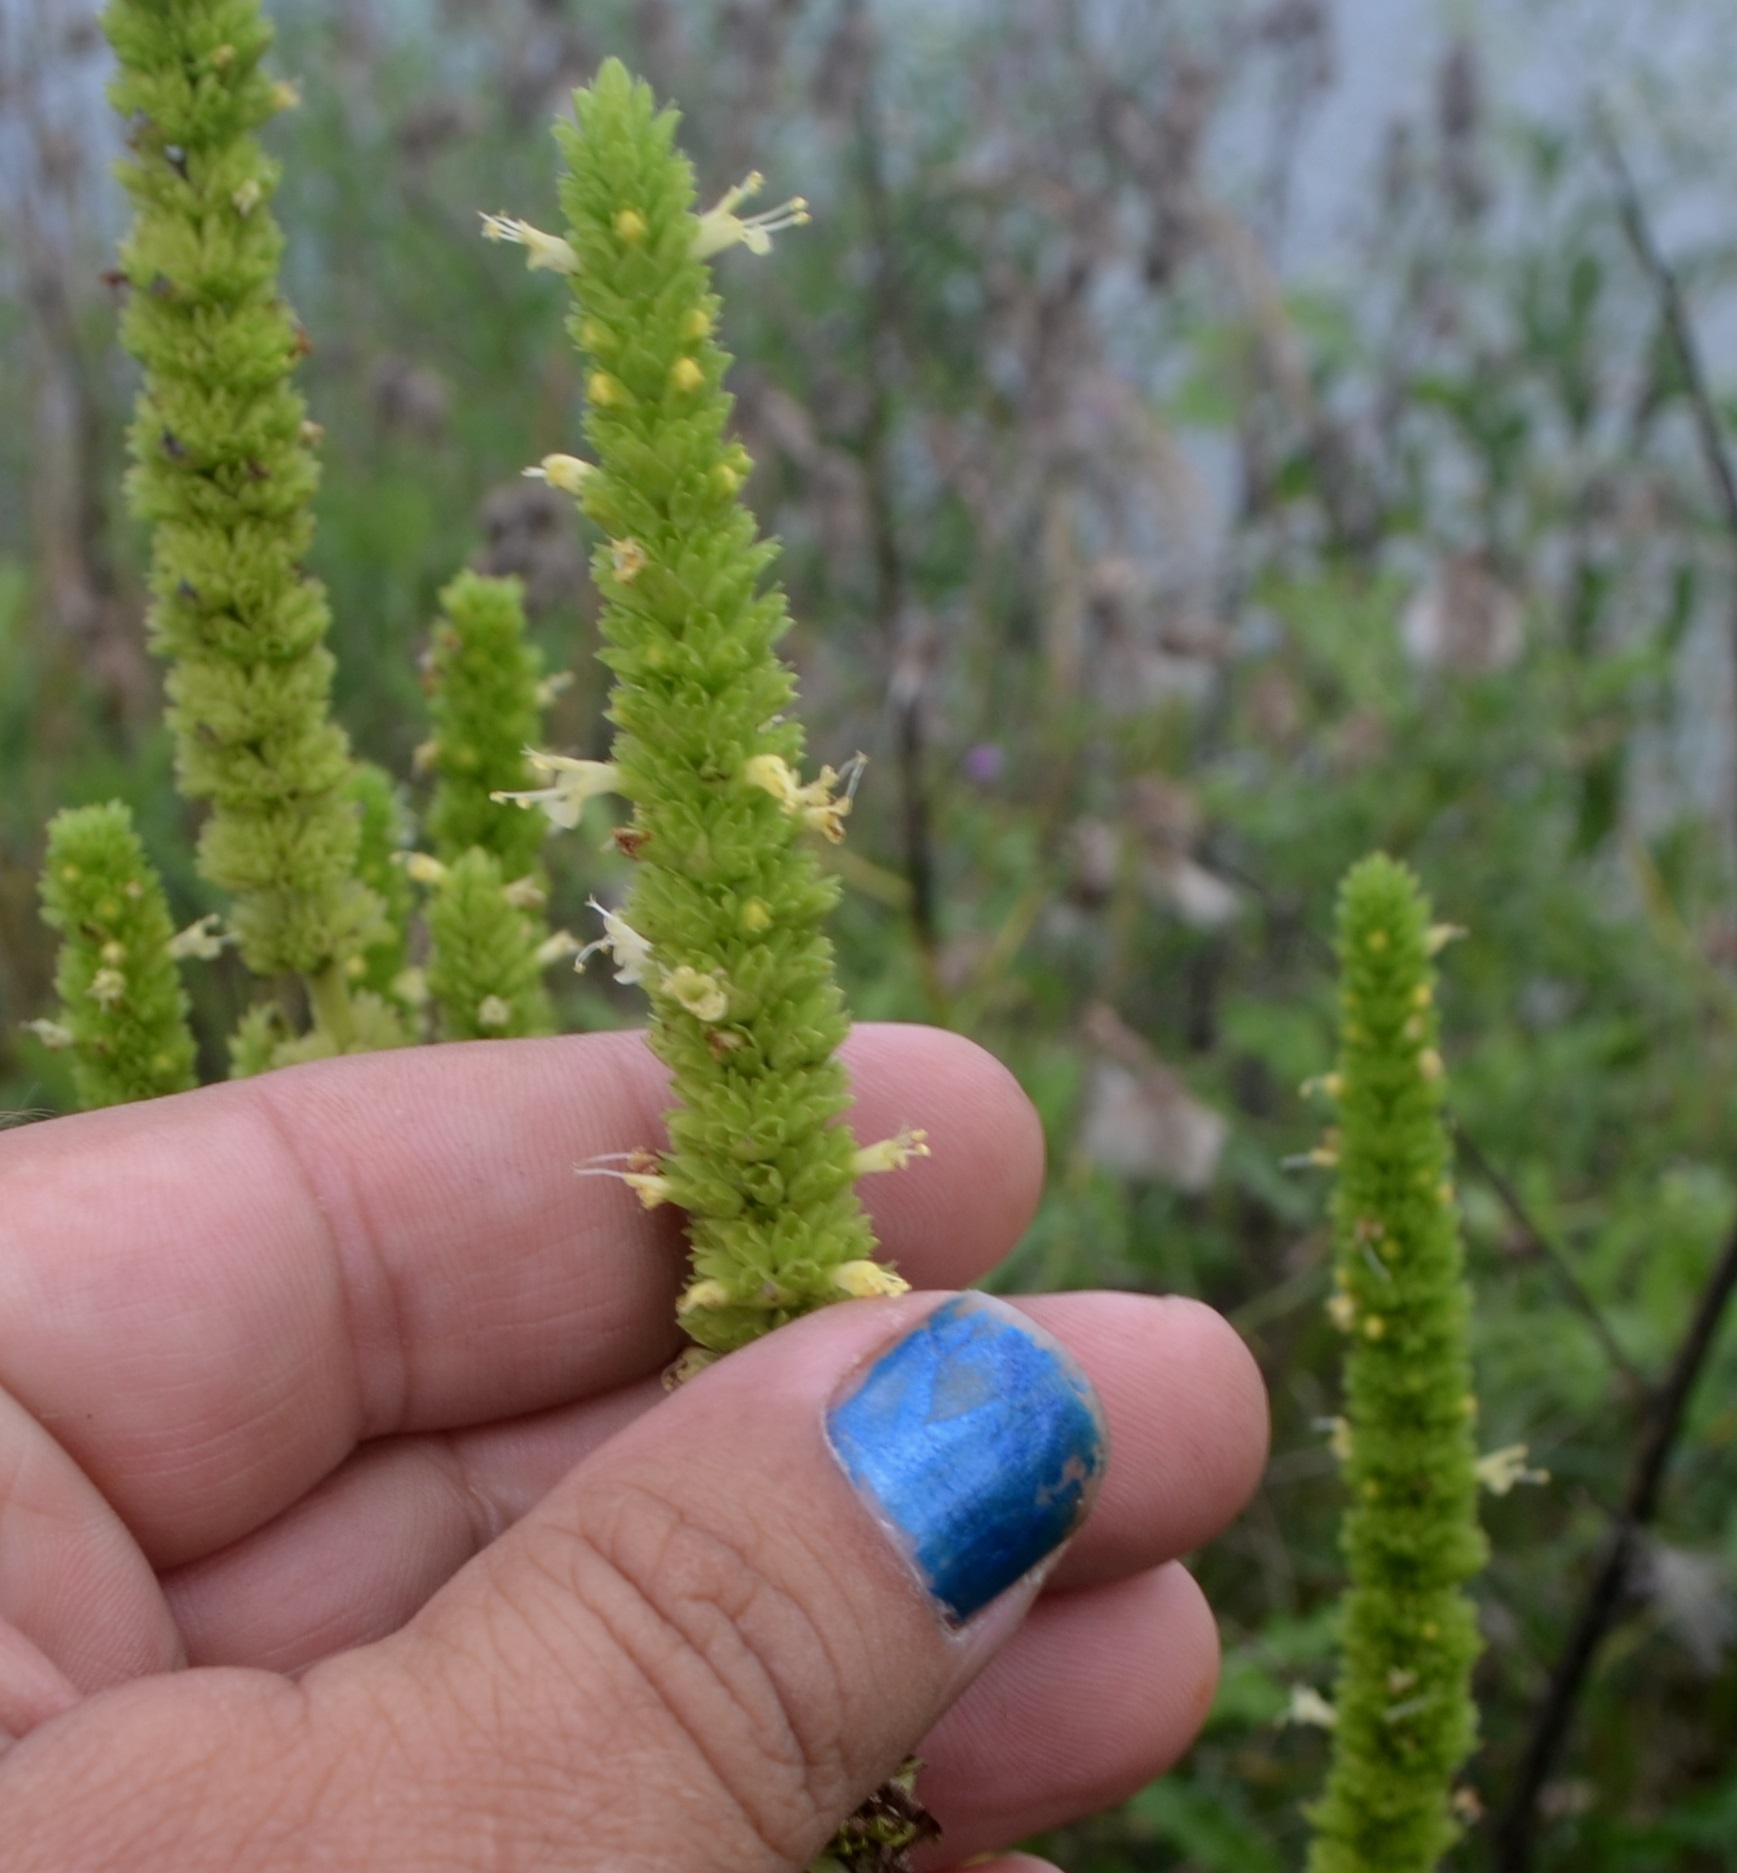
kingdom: Plantae
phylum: Tracheophyta
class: Magnoliopsida
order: Lamiales
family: Lamiaceae
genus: Agastache
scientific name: Agastache nepetoides
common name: Catnip giant hyssop
